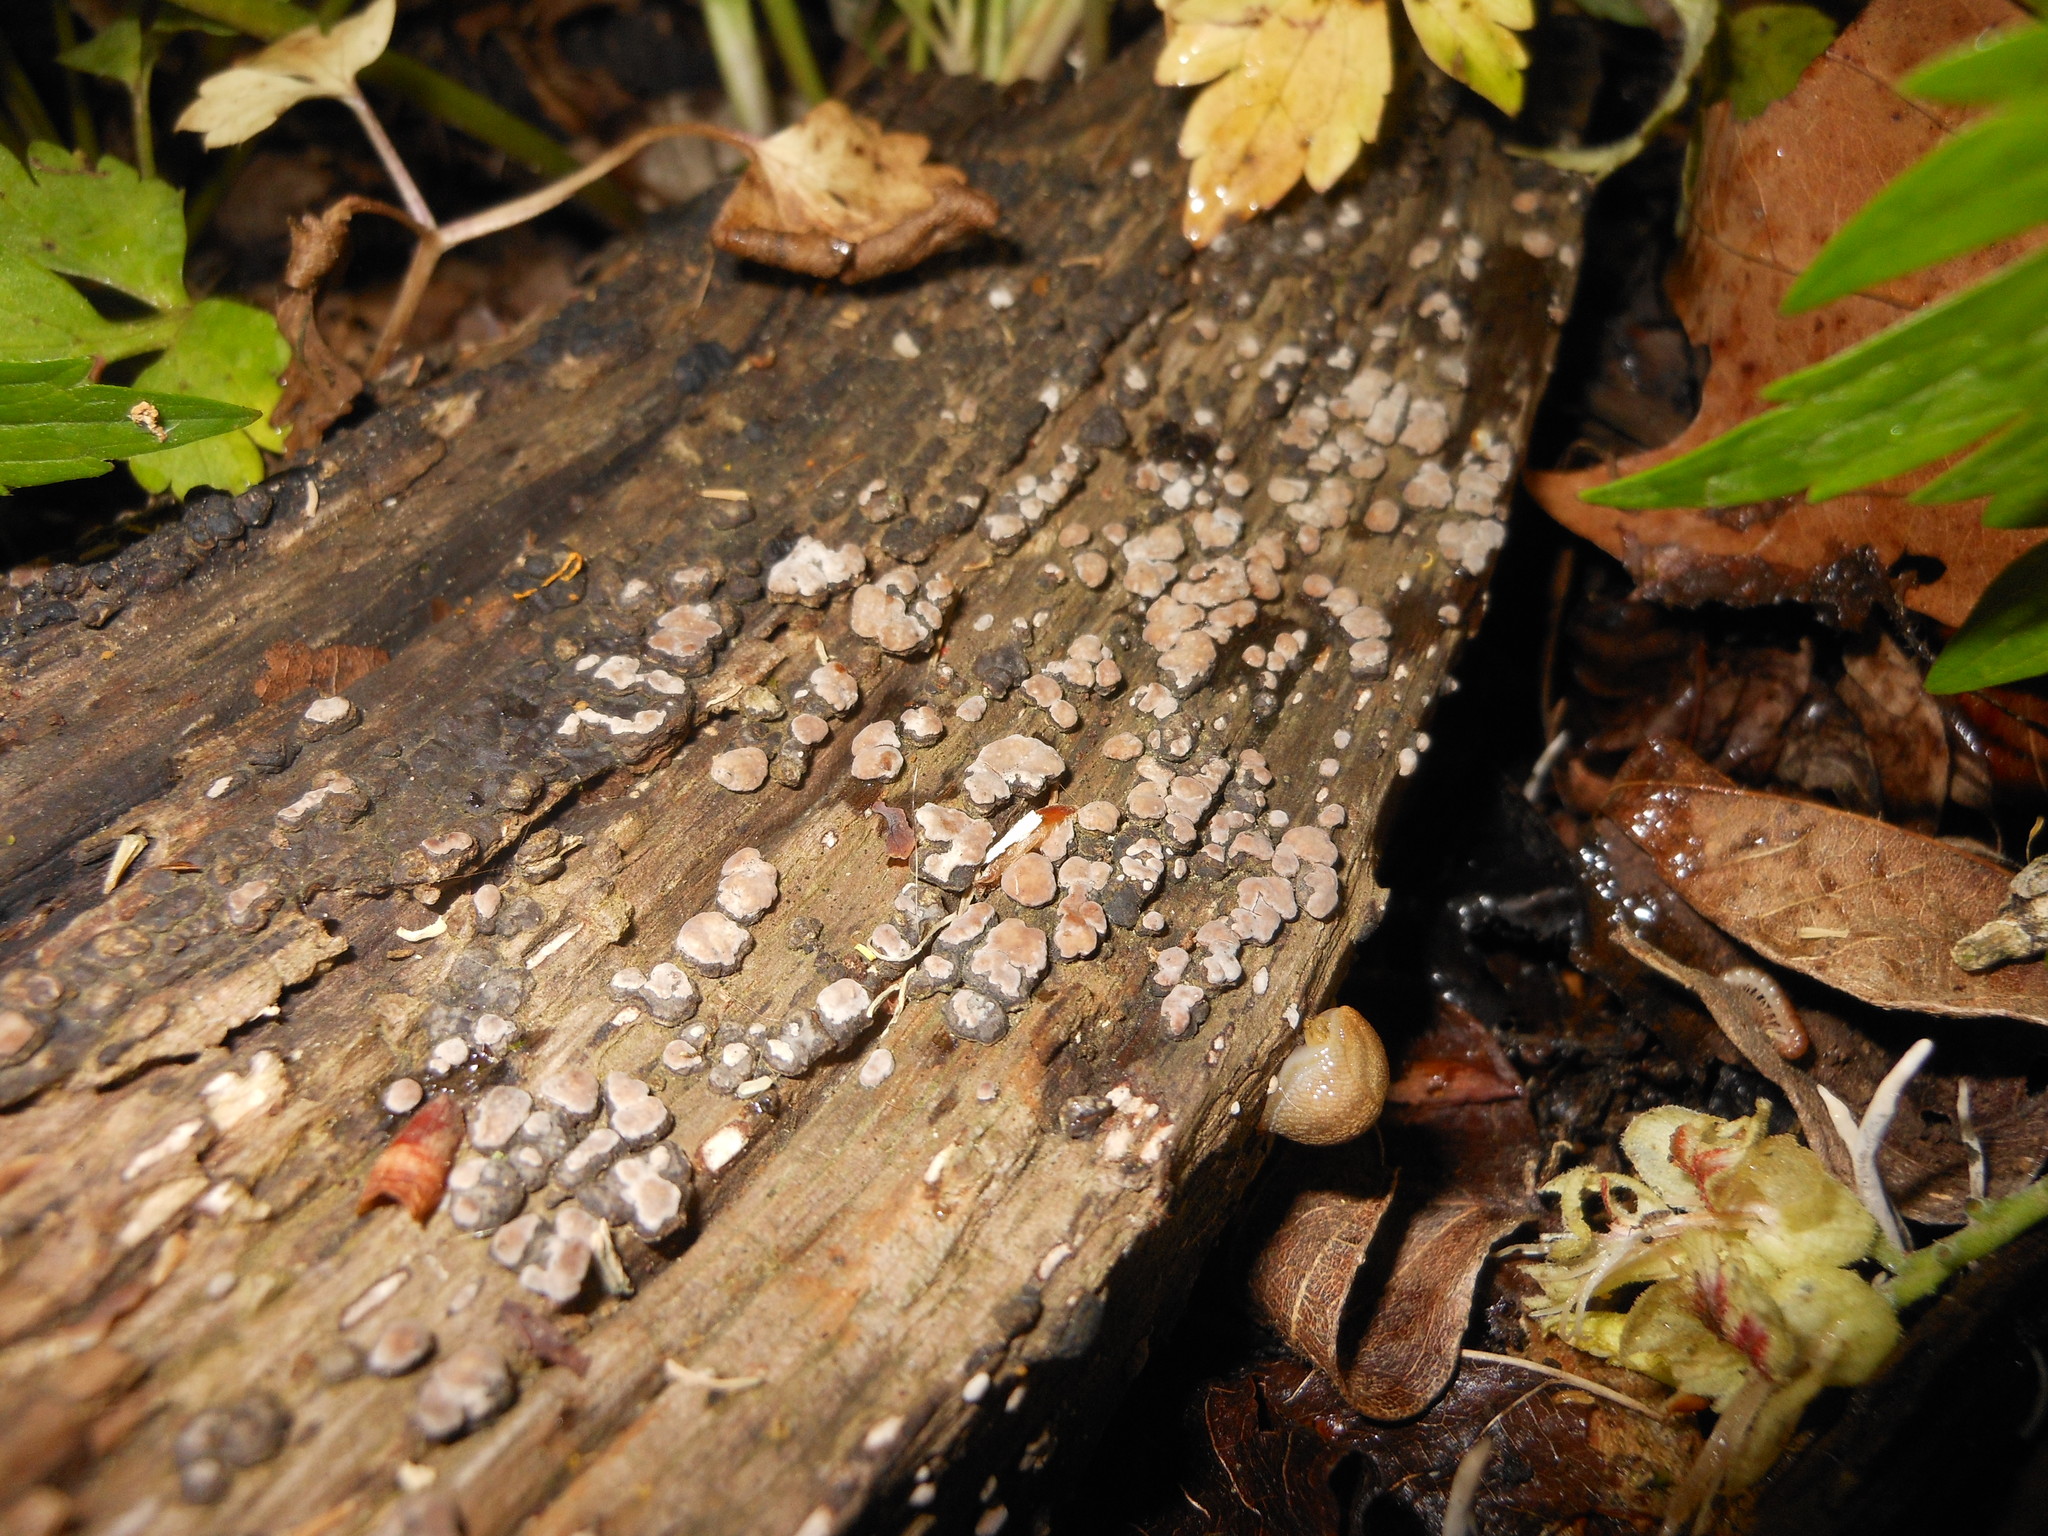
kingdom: Fungi
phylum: Basidiomycota
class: Agaricomycetes
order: Russulales
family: Stereaceae
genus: Xylobolus
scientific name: Xylobolus frustulatus
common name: Ceramic parchment
